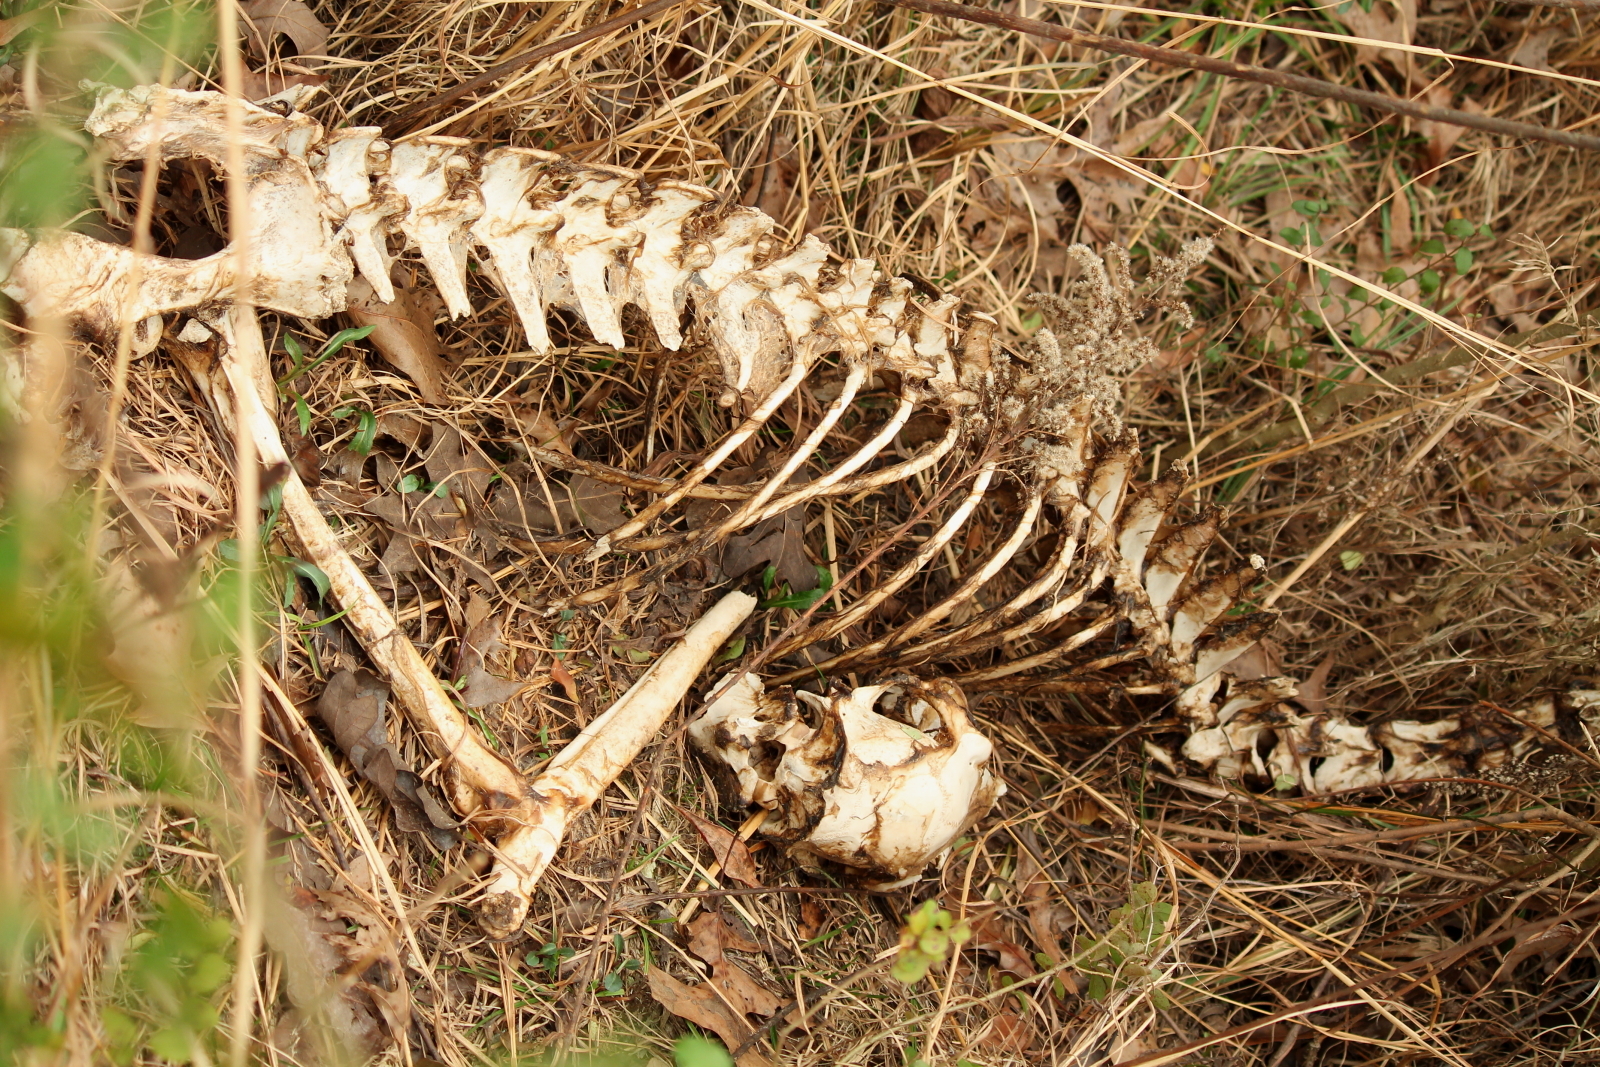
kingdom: Animalia
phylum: Chordata
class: Mammalia
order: Artiodactyla
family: Cervidae
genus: Odocoileus
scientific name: Odocoileus virginianus
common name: White-tailed deer
